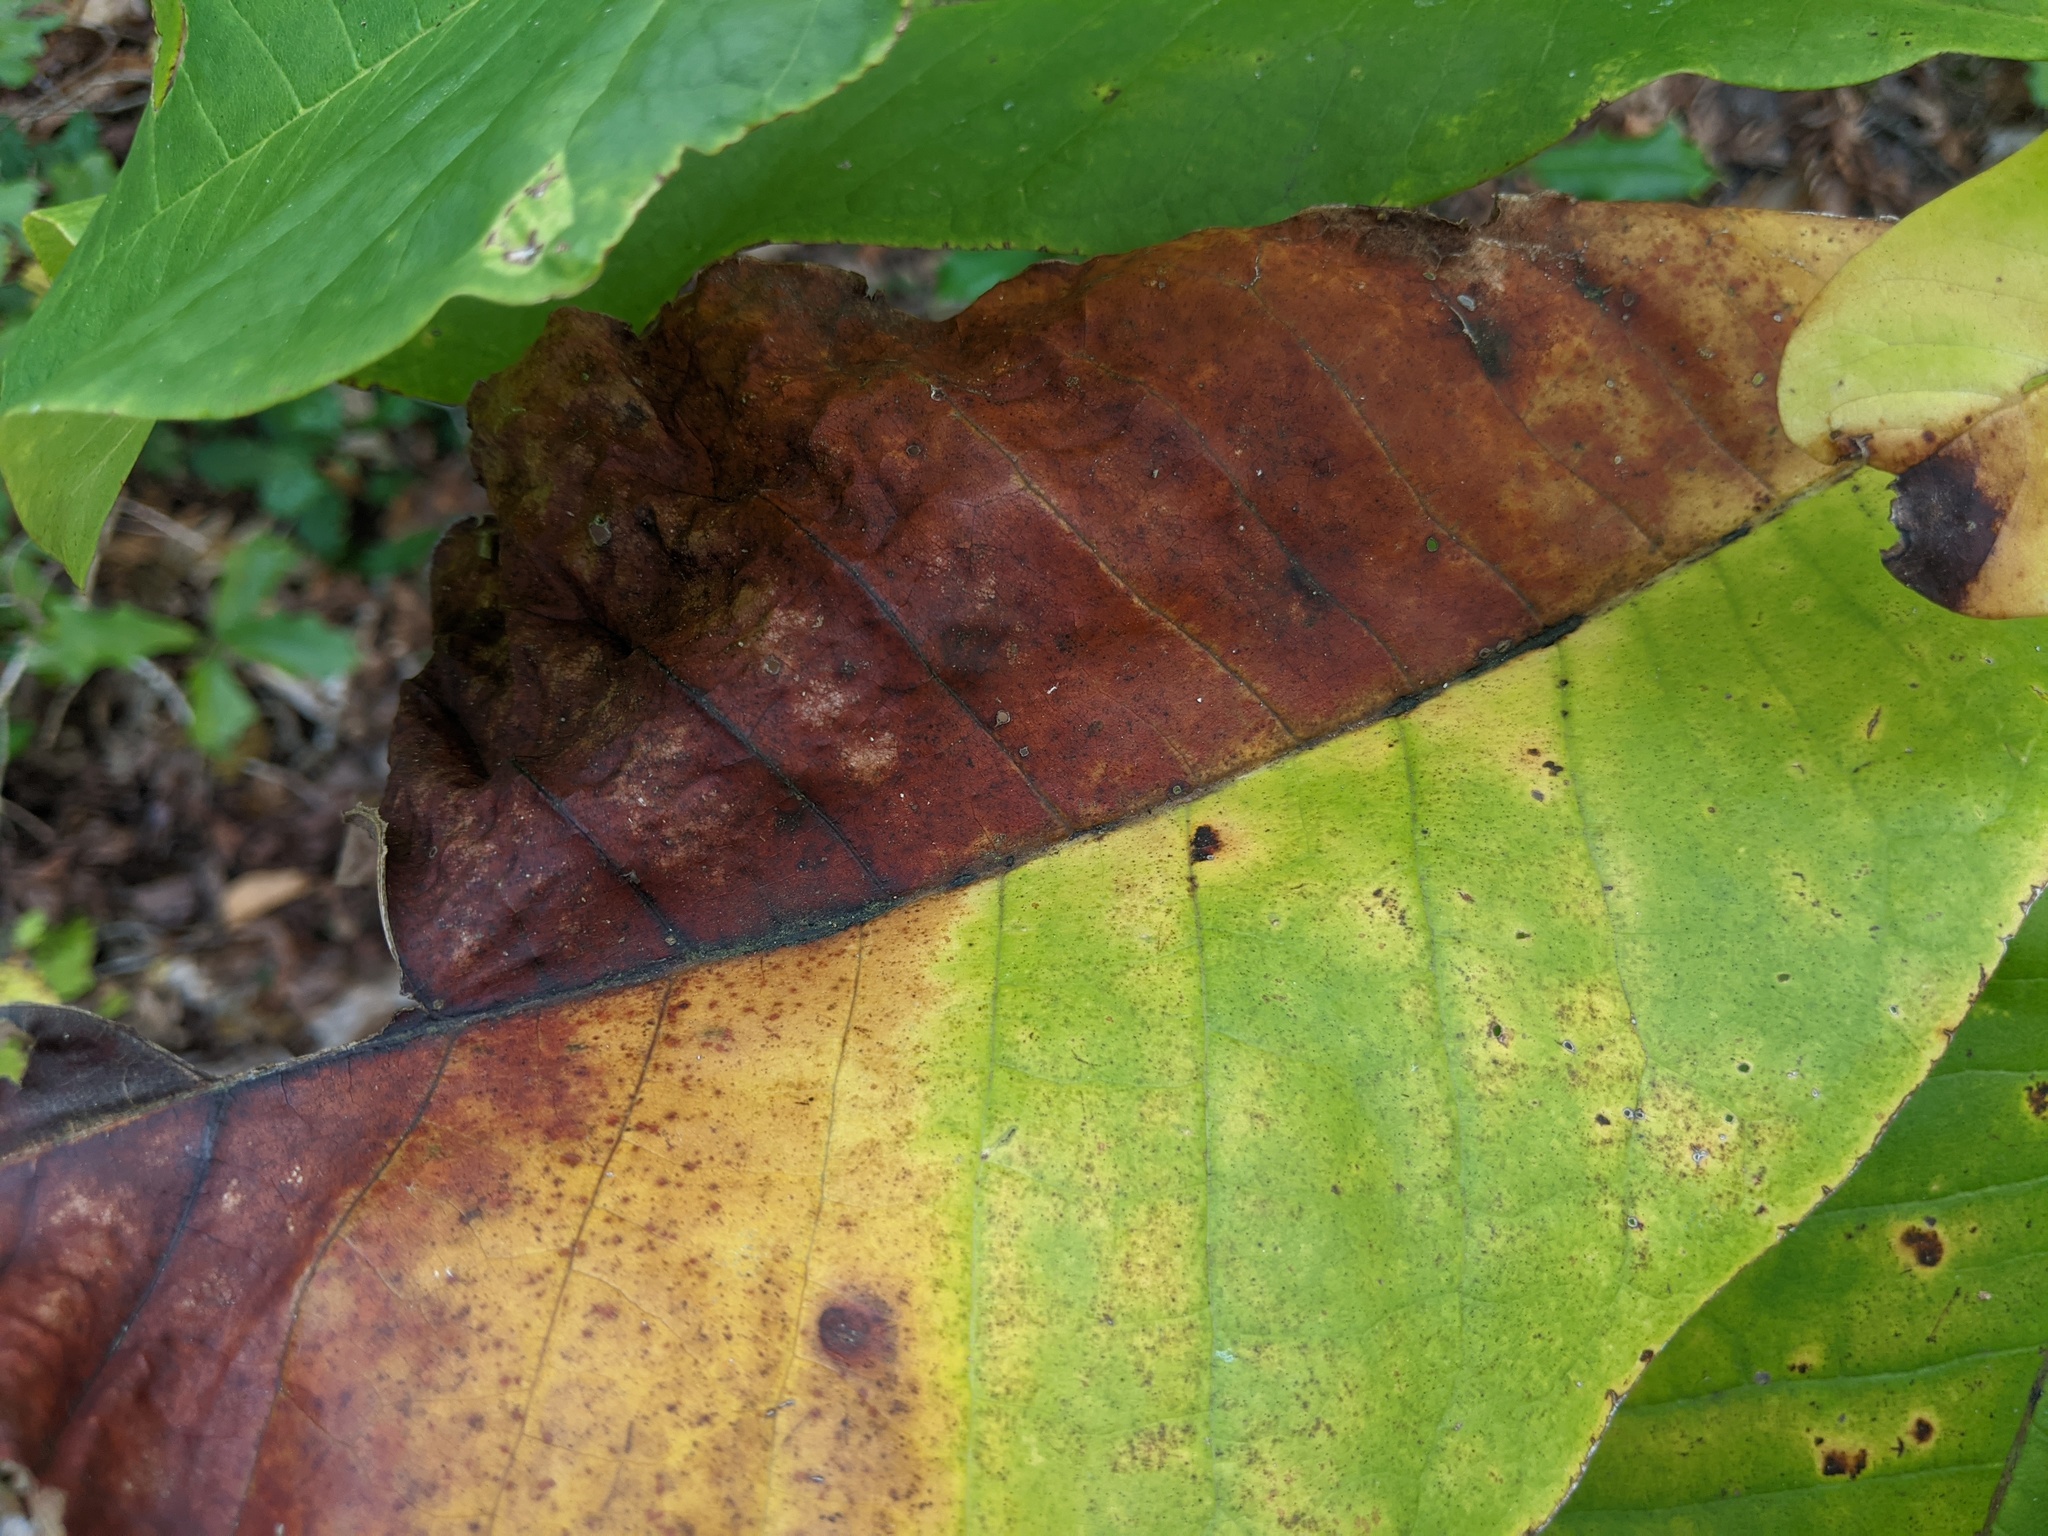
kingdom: Plantae
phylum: Tracheophyta
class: Magnoliopsida
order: Magnoliales
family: Magnoliaceae
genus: Magnolia
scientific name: Magnolia tripetala
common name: Umbrella magnolia
